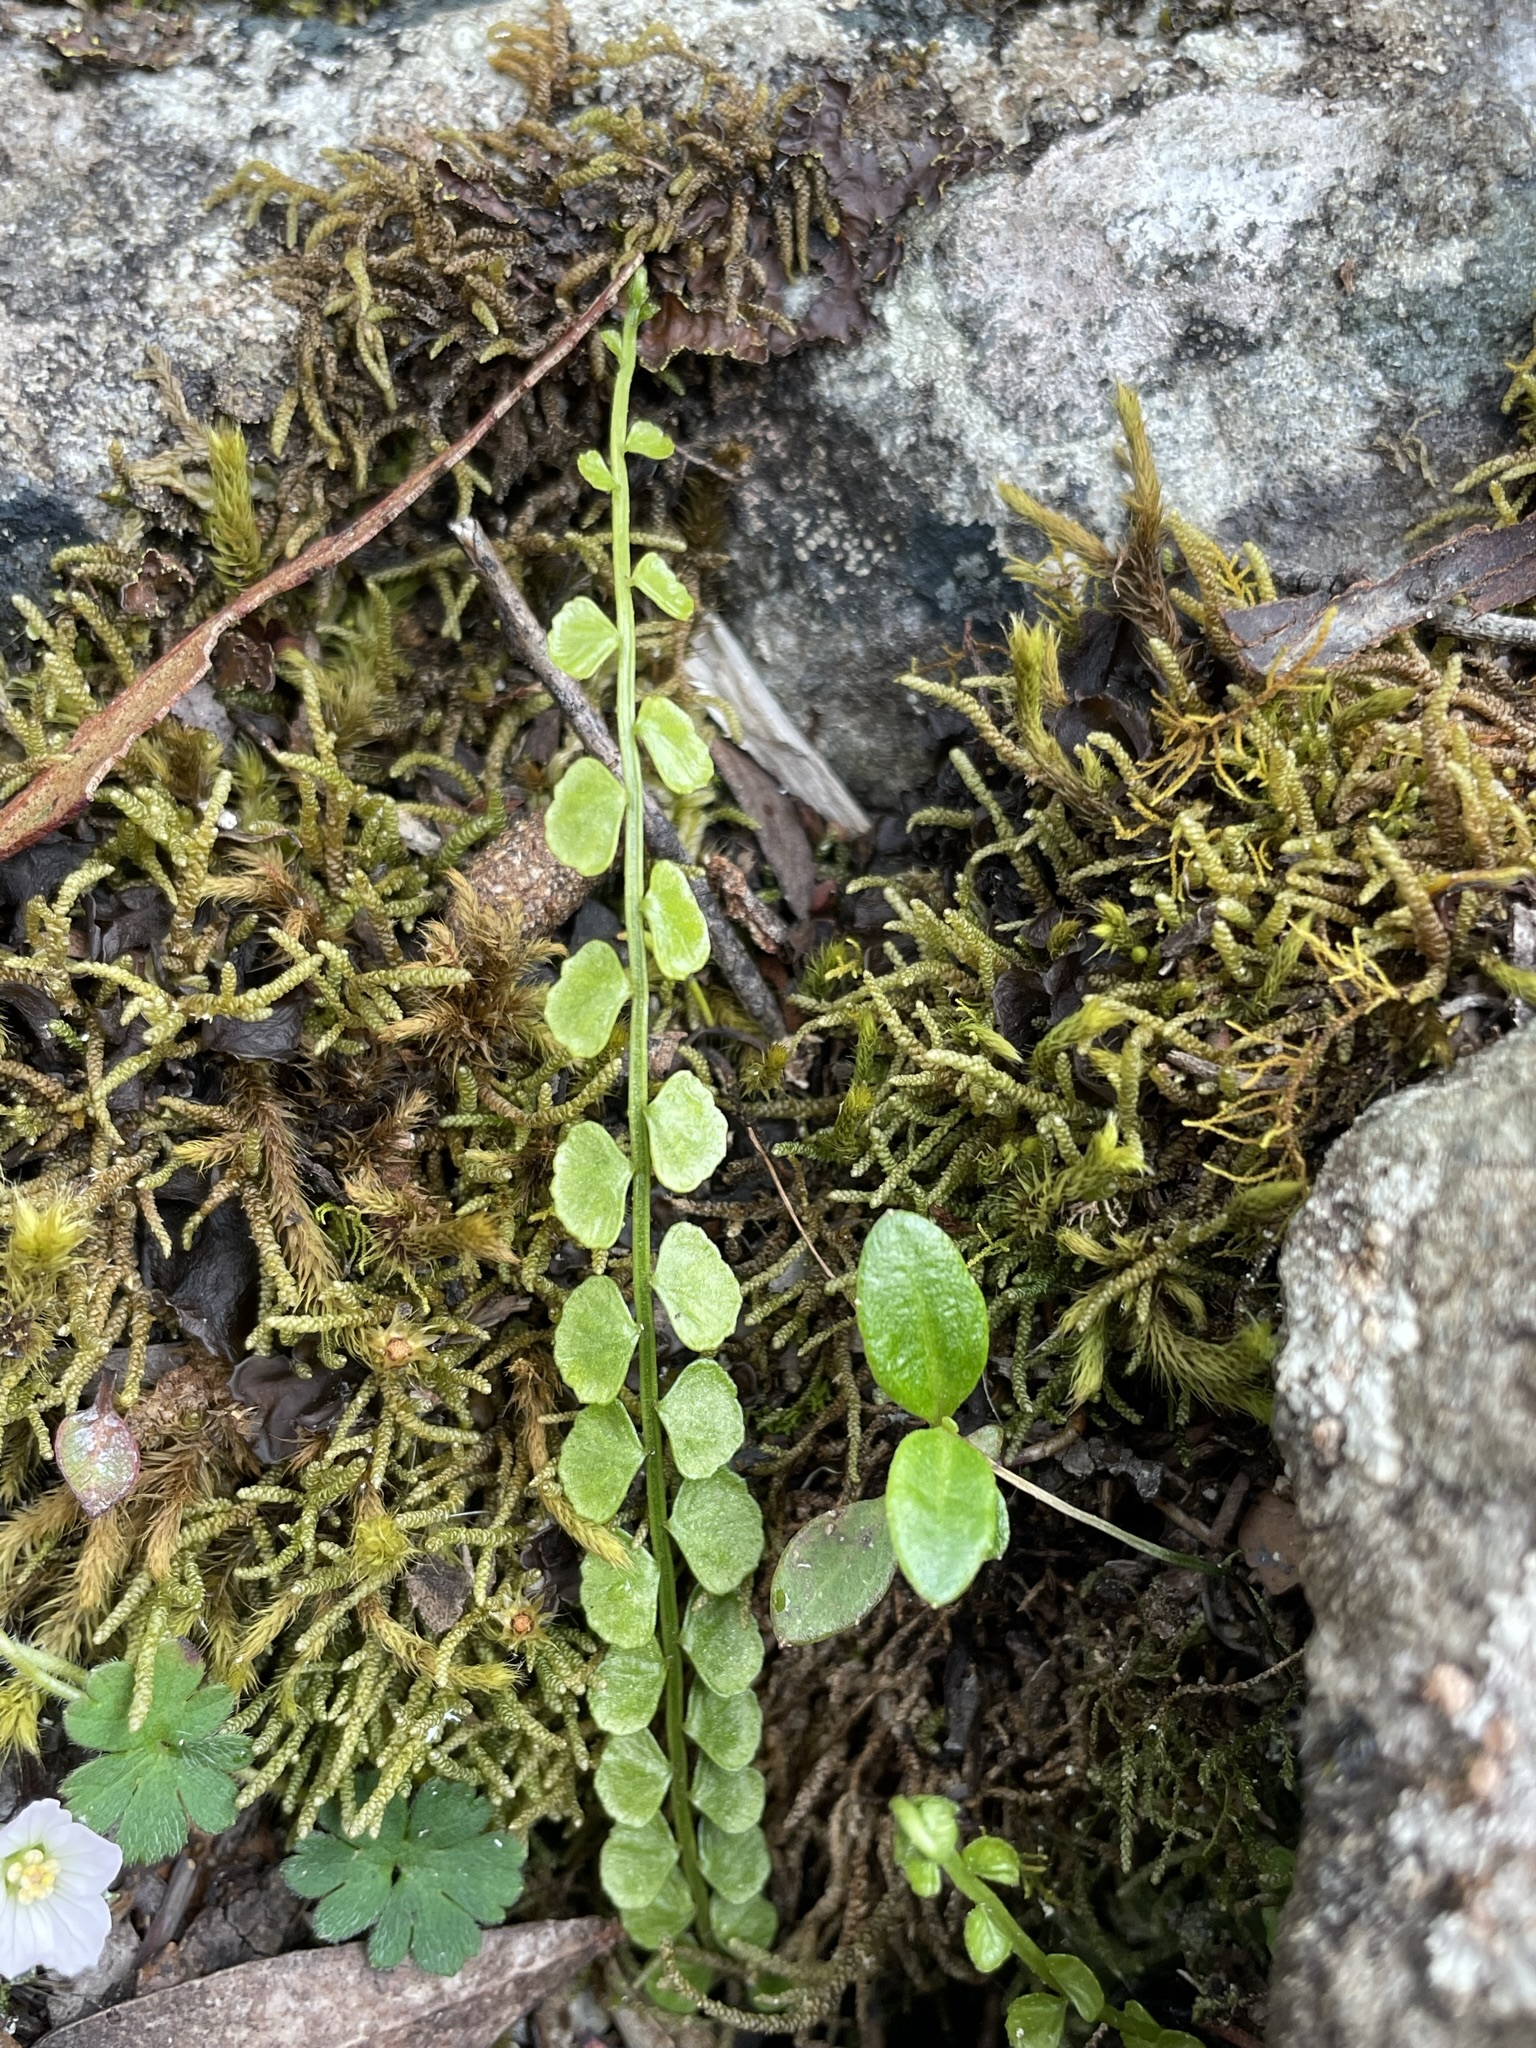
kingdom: Plantae
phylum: Tracheophyta
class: Polypodiopsida
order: Polypodiales
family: Aspleniaceae
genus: Asplenium
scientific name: Asplenium flabellifolium
